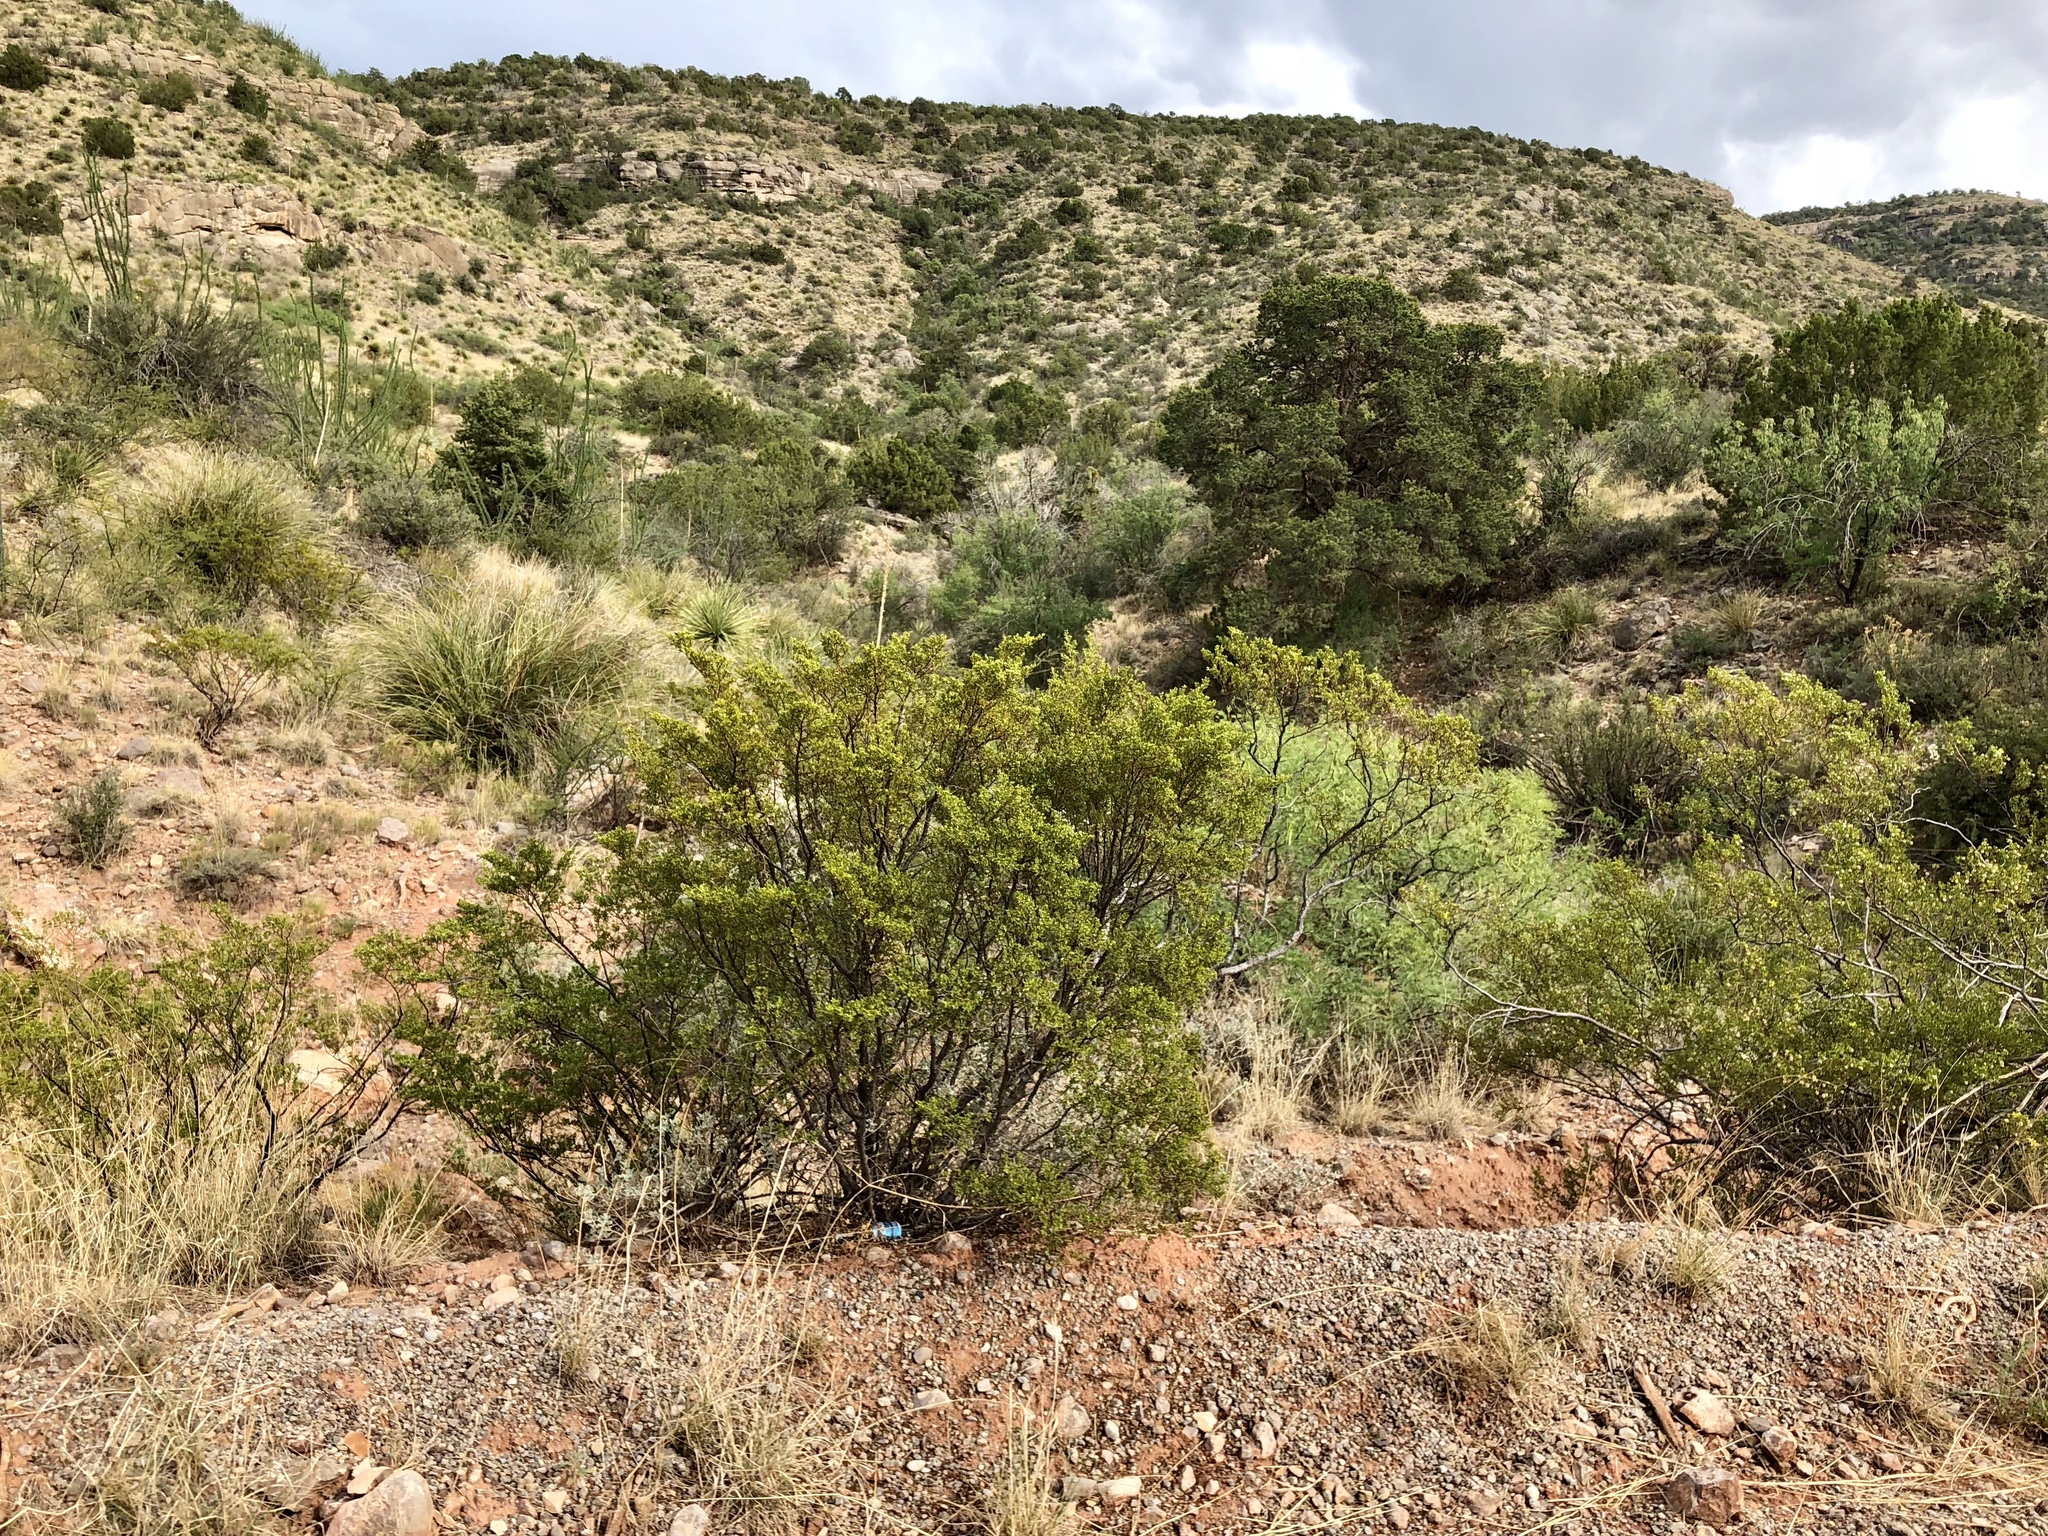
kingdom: Plantae
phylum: Tracheophyta
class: Magnoliopsida
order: Zygophyllales
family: Zygophyllaceae
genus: Larrea
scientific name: Larrea tridentata
